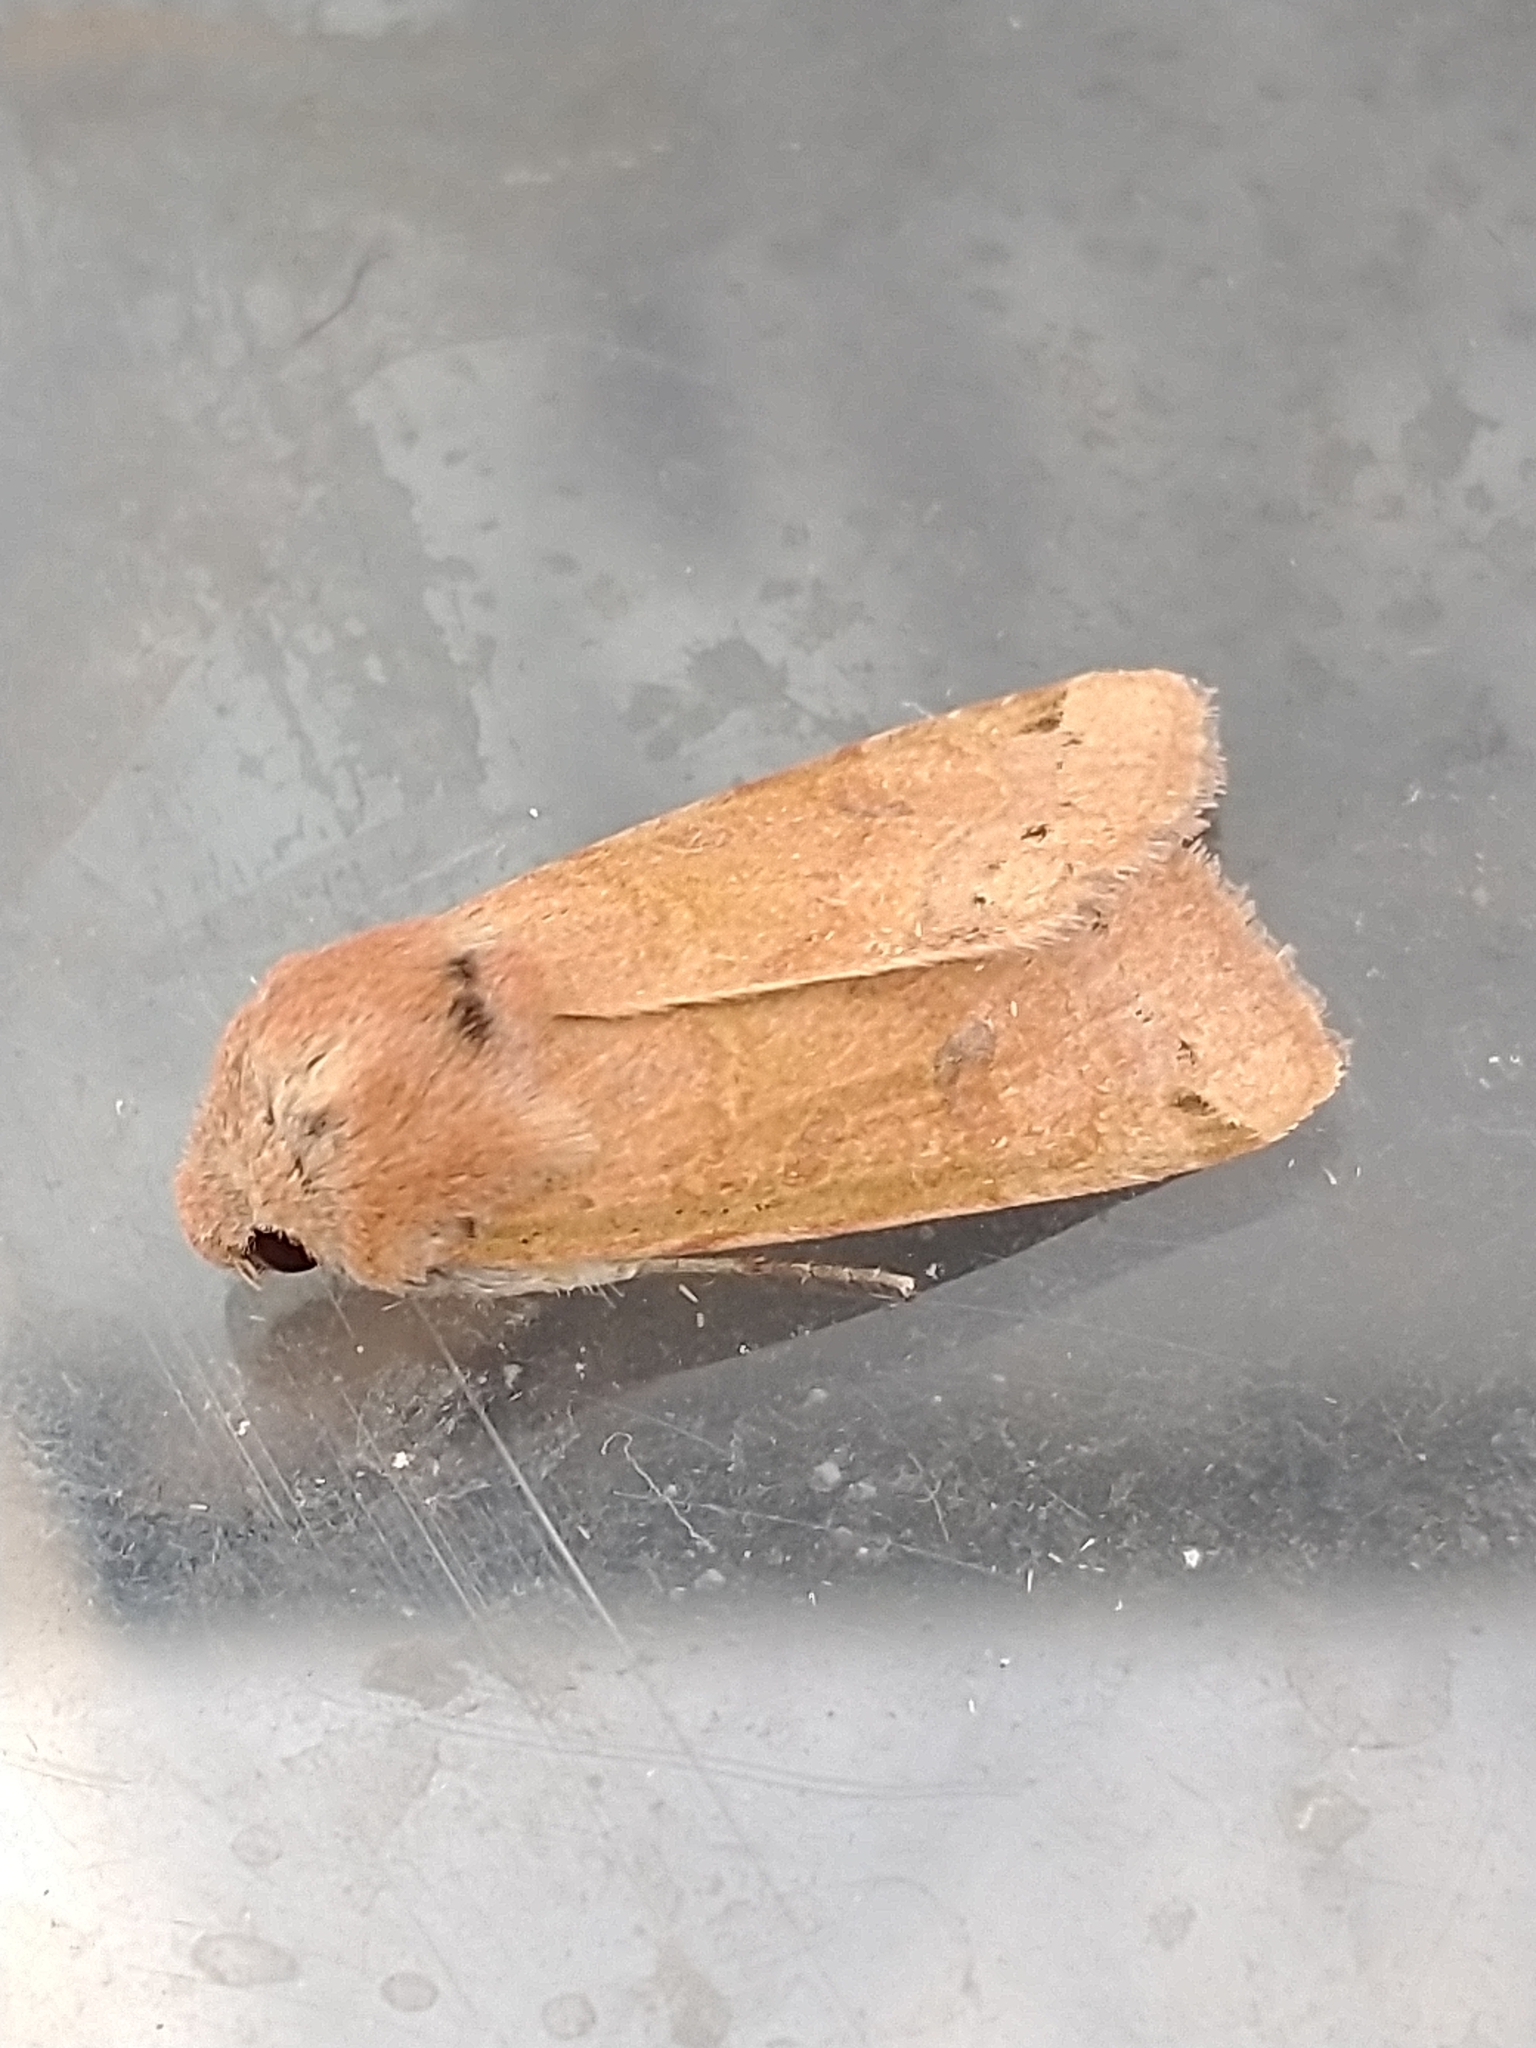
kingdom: Animalia
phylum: Arthropoda
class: Insecta
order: Lepidoptera
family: Noctuidae
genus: Agrochola
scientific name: Agrochola lunosa
